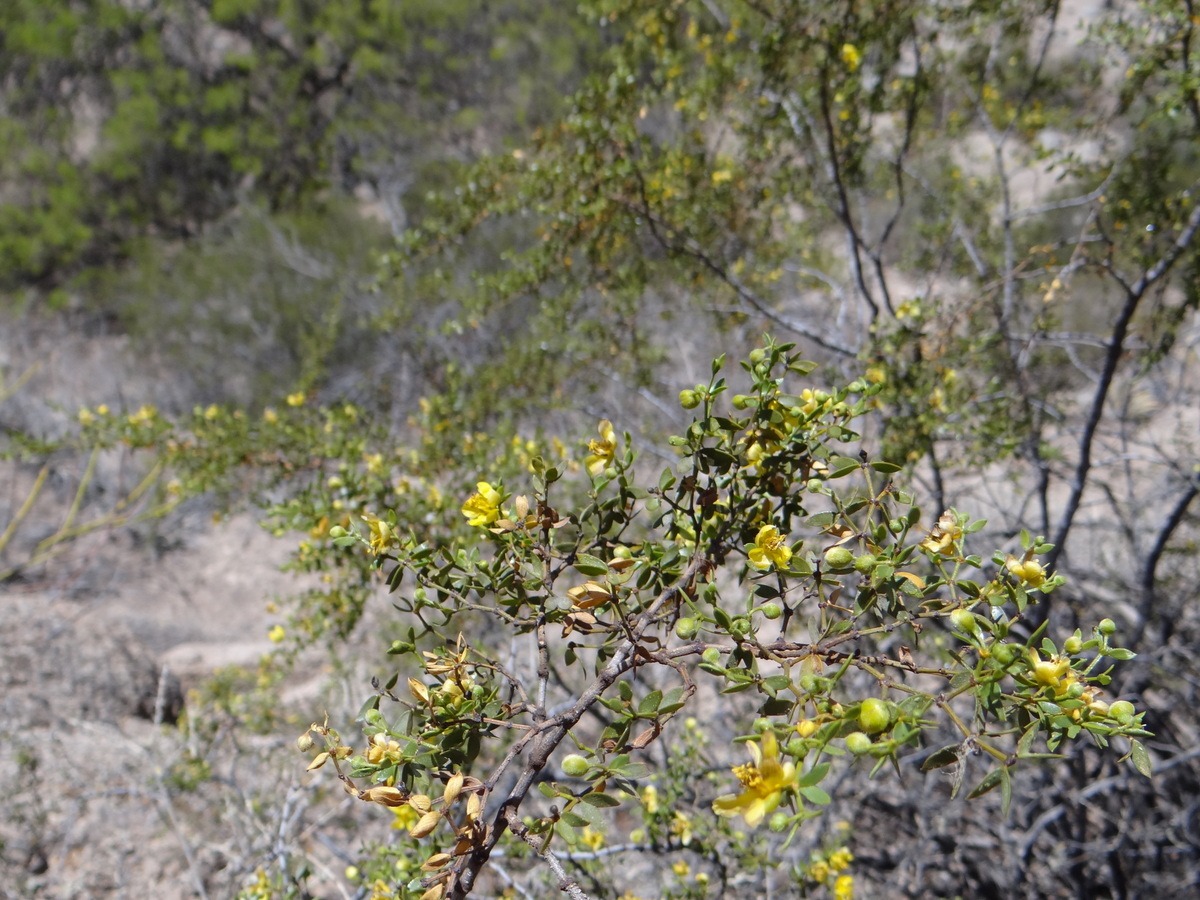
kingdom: Plantae
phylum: Tracheophyta
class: Magnoliopsida
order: Zygophyllales
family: Zygophyllaceae
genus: Larrea
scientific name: Larrea divaricata
